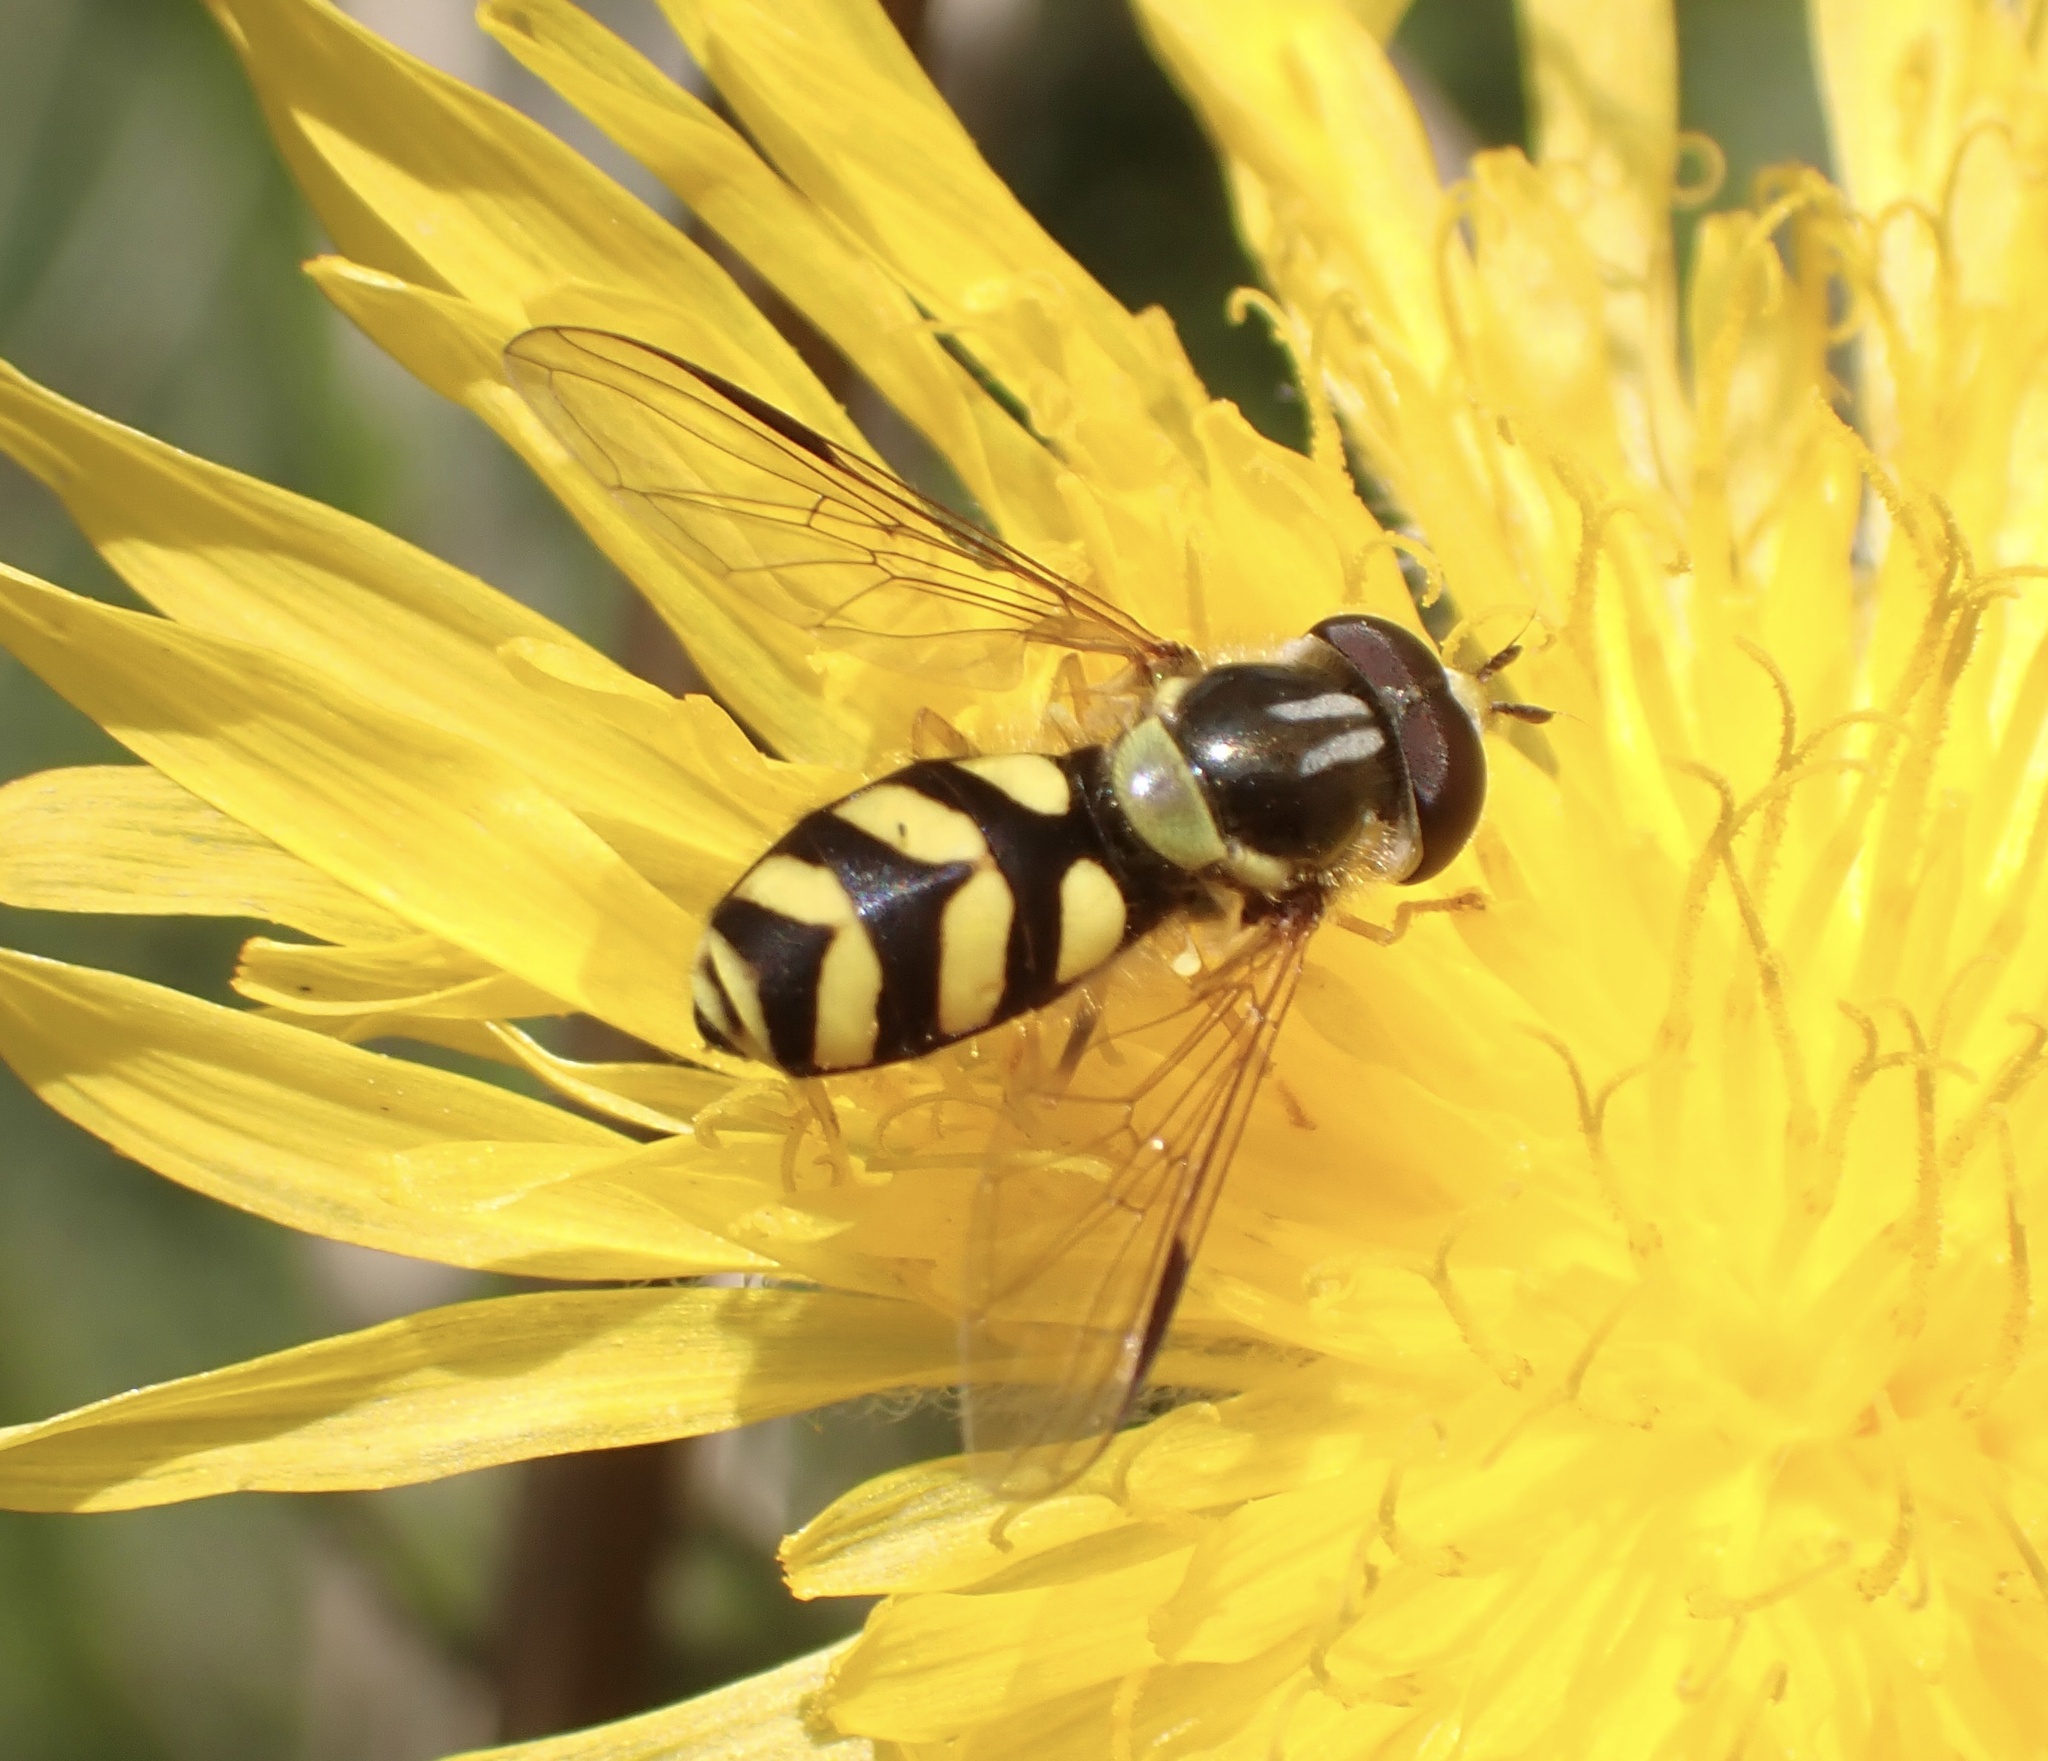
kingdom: Animalia
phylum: Arthropoda
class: Insecta
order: Diptera
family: Syrphidae
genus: Dasysyrphus
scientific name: Dasysyrphus albostriatus
